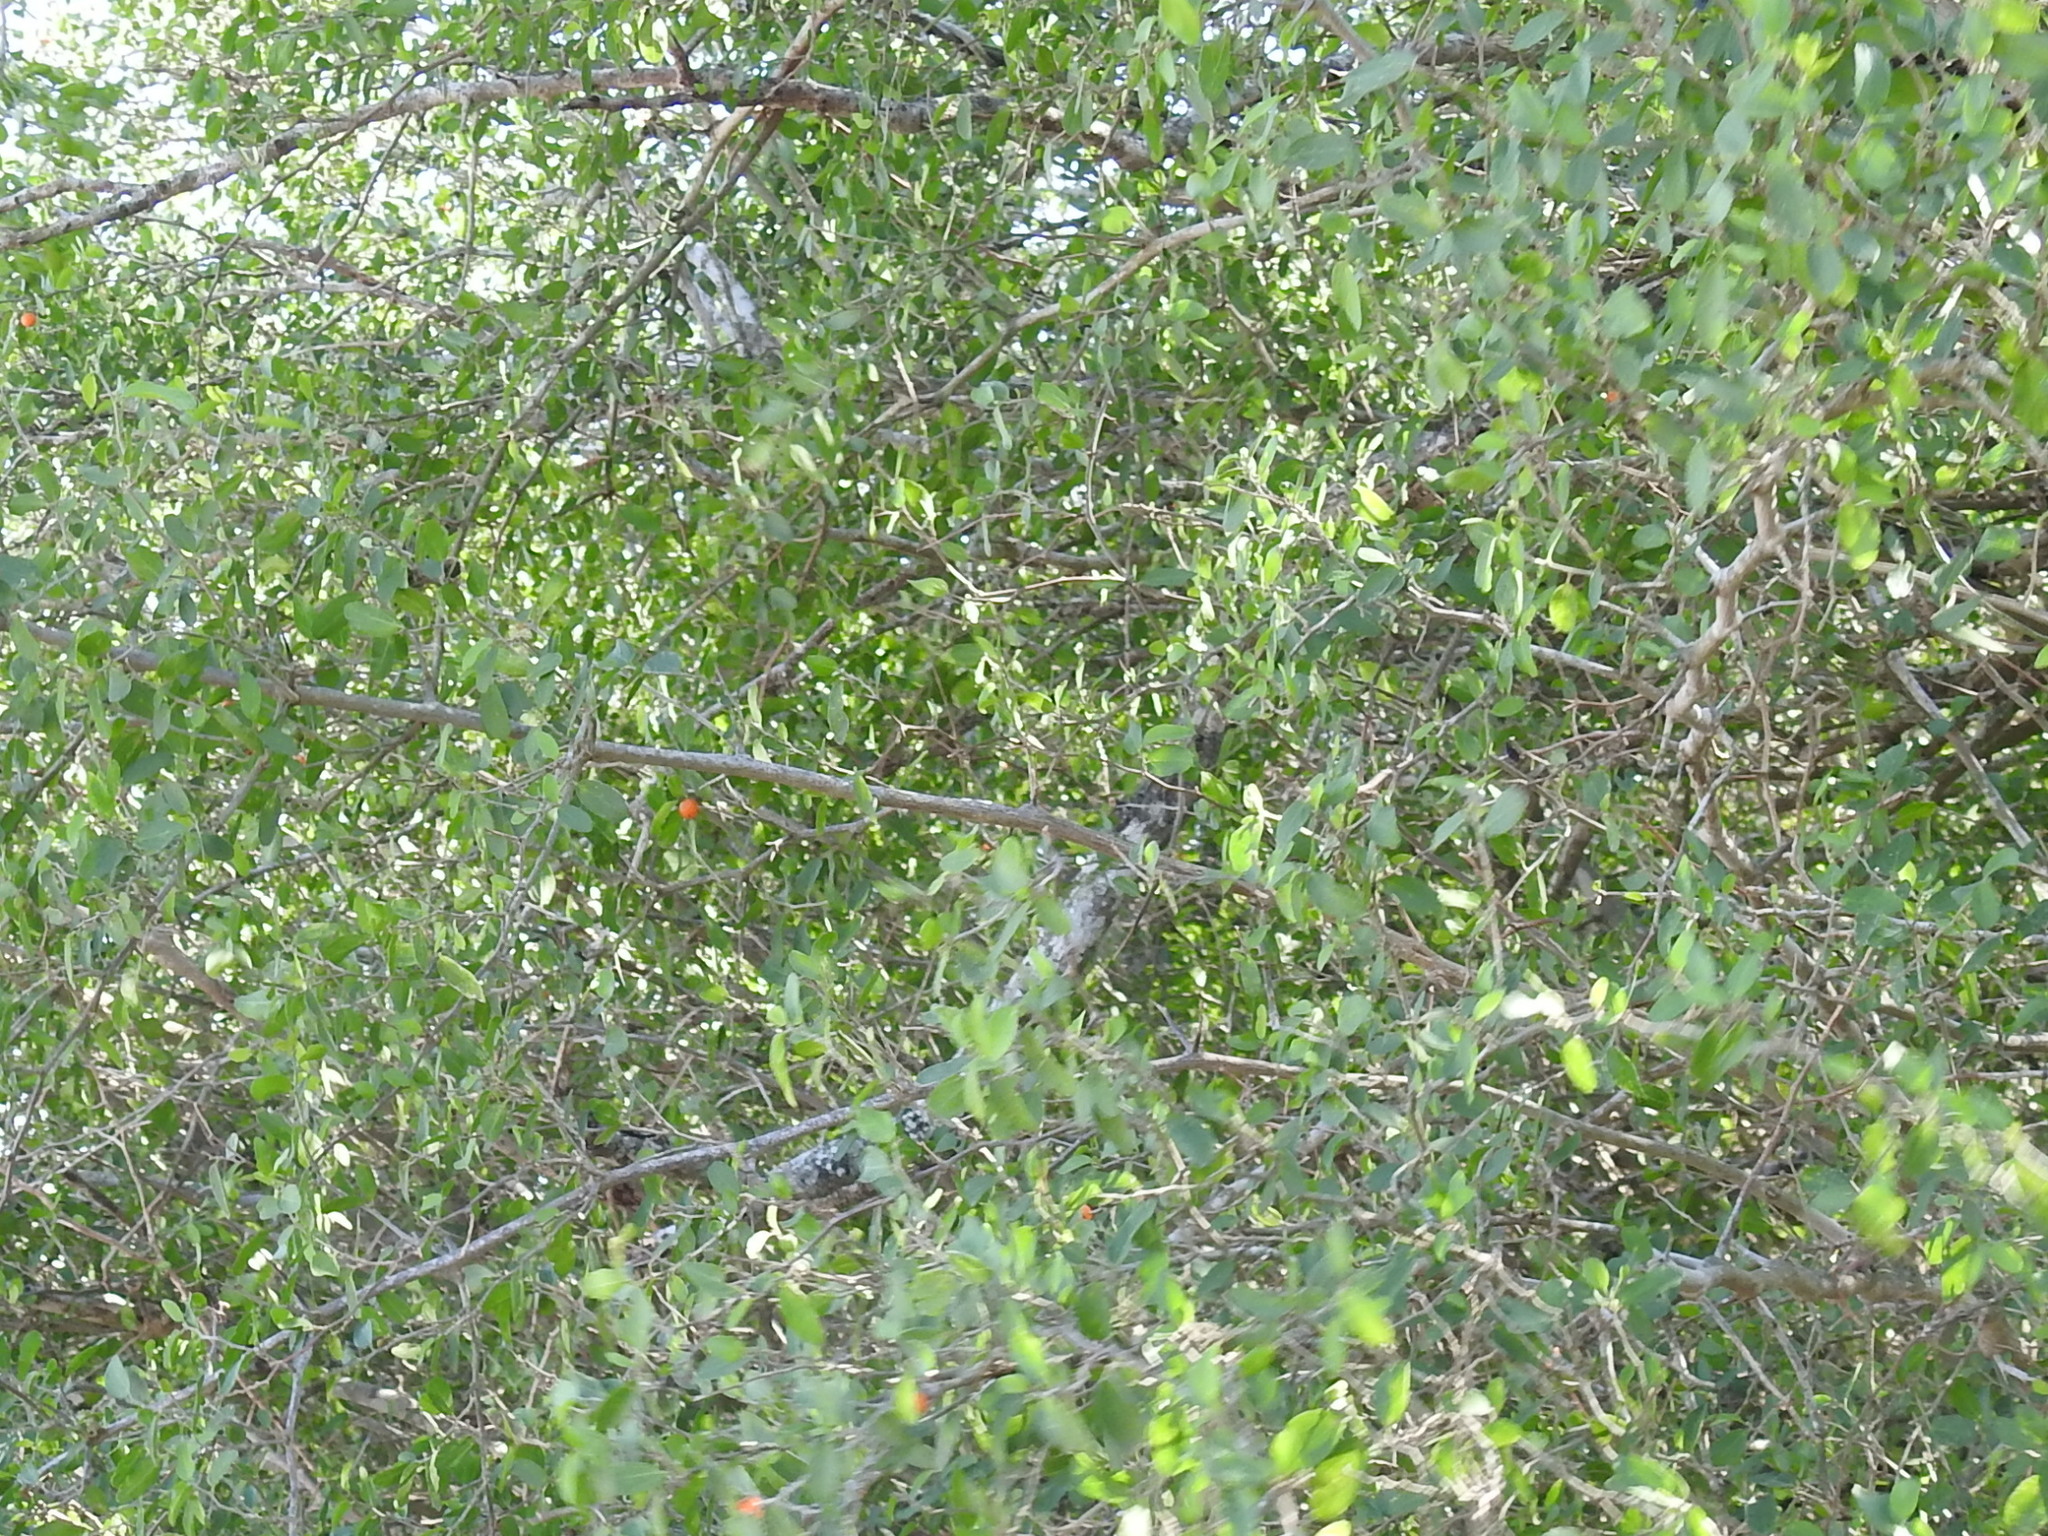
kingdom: Plantae
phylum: Tracheophyta
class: Magnoliopsida
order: Rosales
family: Cannabaceae
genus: Celtis
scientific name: Celtis pallida
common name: Desert hackberry
